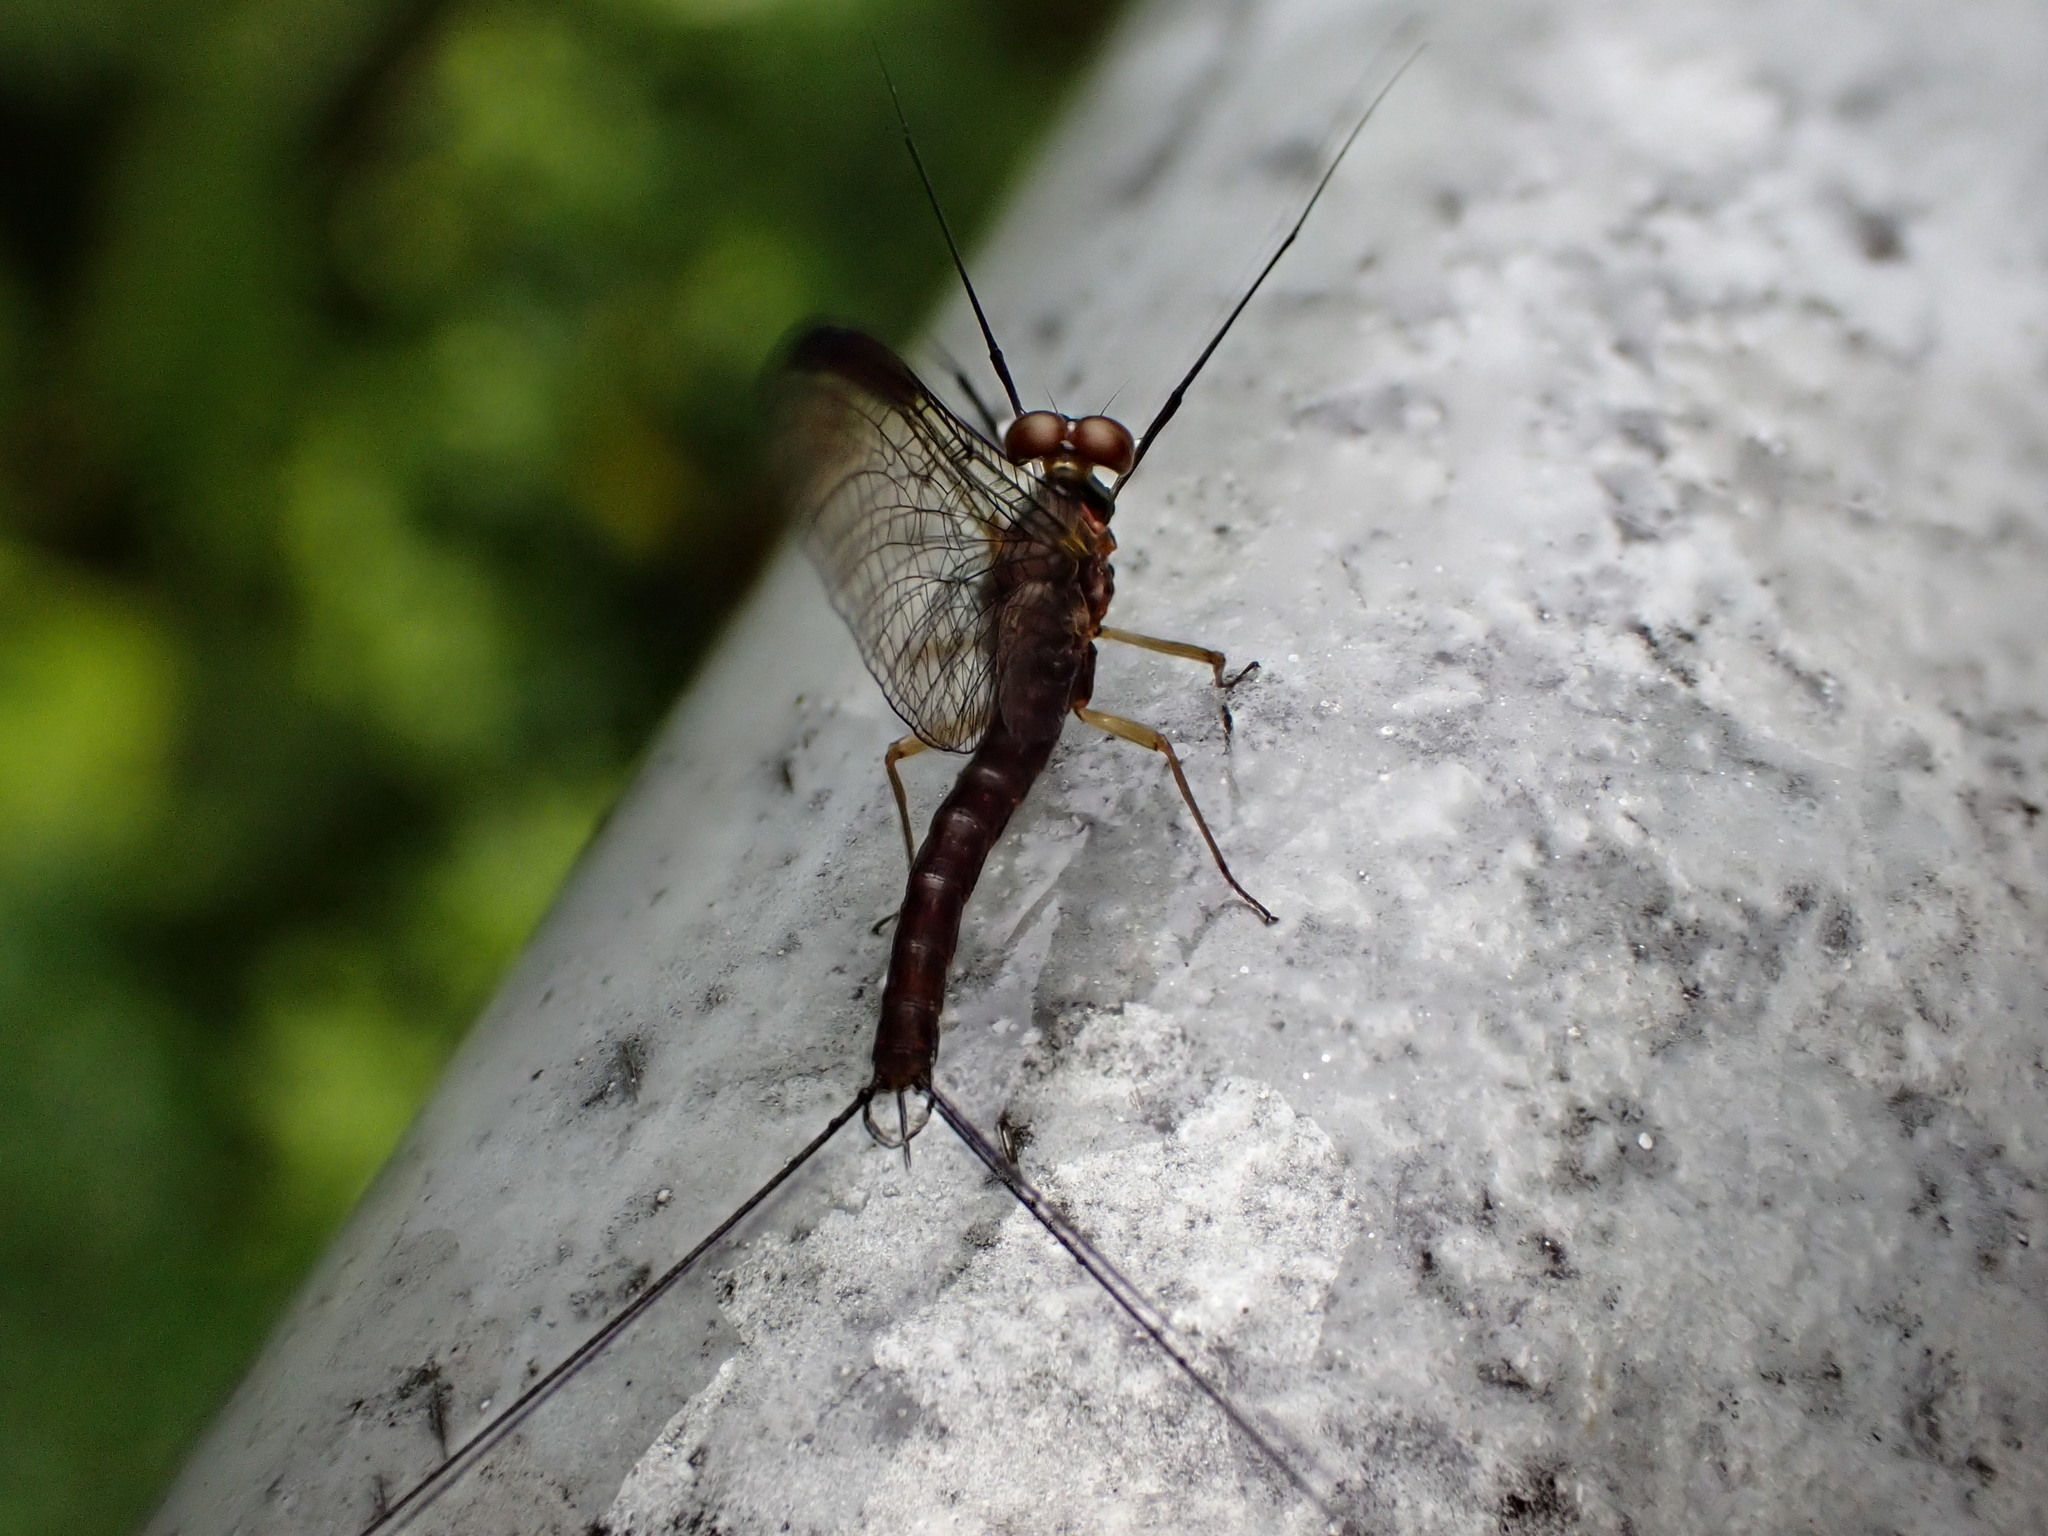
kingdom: Animalia
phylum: Arthropoda
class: Insecta
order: Ephemeroptera
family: Coloburiscidae
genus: Coloburiscus
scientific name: Coloburiscus humeralis
